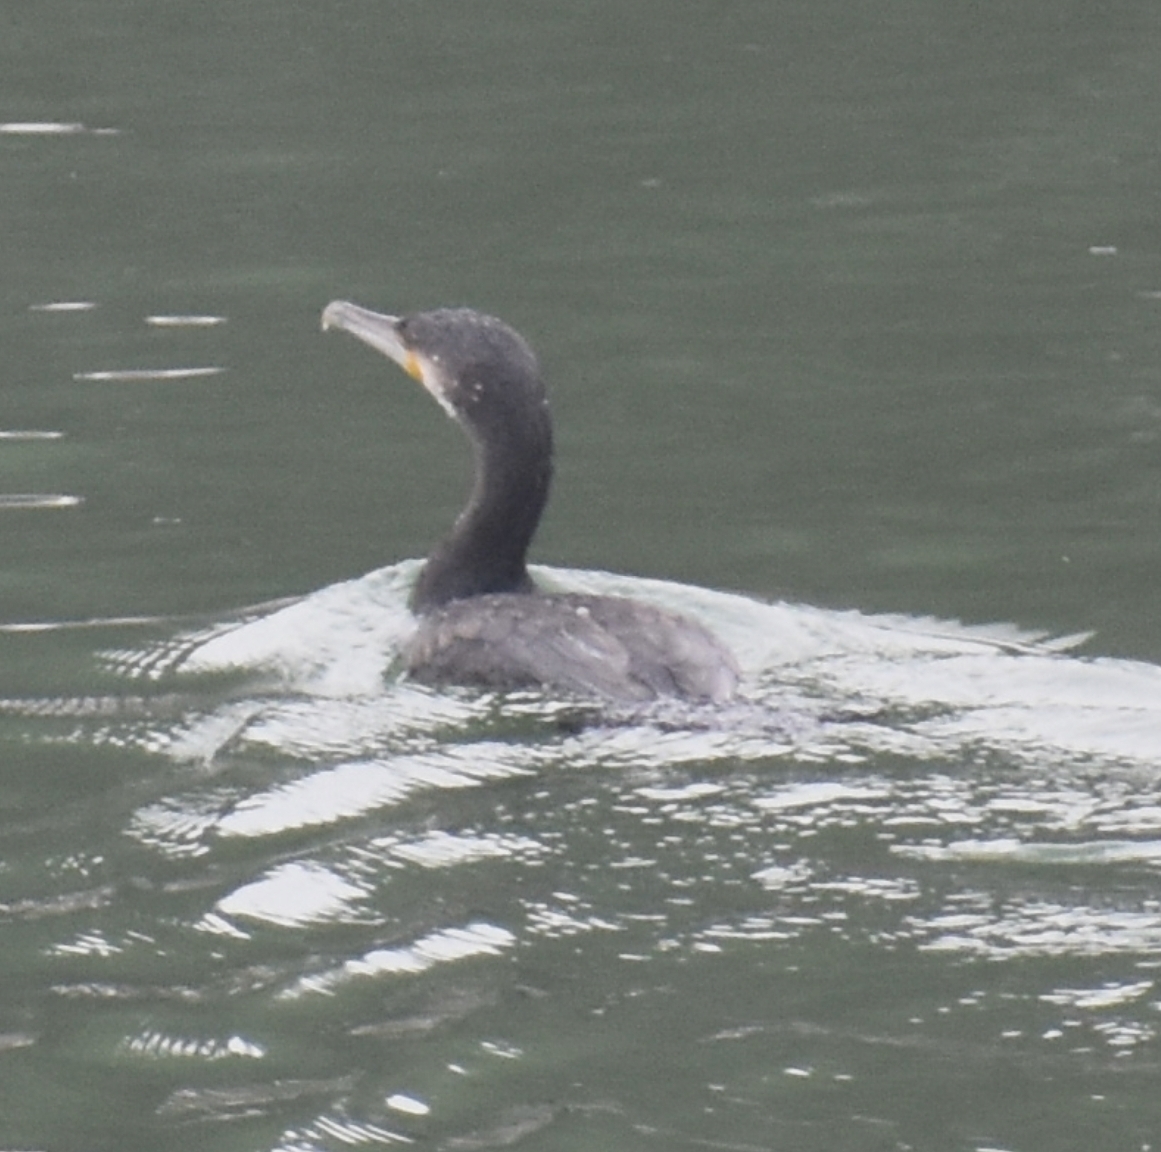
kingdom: Animalia
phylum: Chordata
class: Aves
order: Suliformes
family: Phalacrocoracidae
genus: Phalacrocorax
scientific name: Phalacrocorax carbo
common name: Great cormorant
